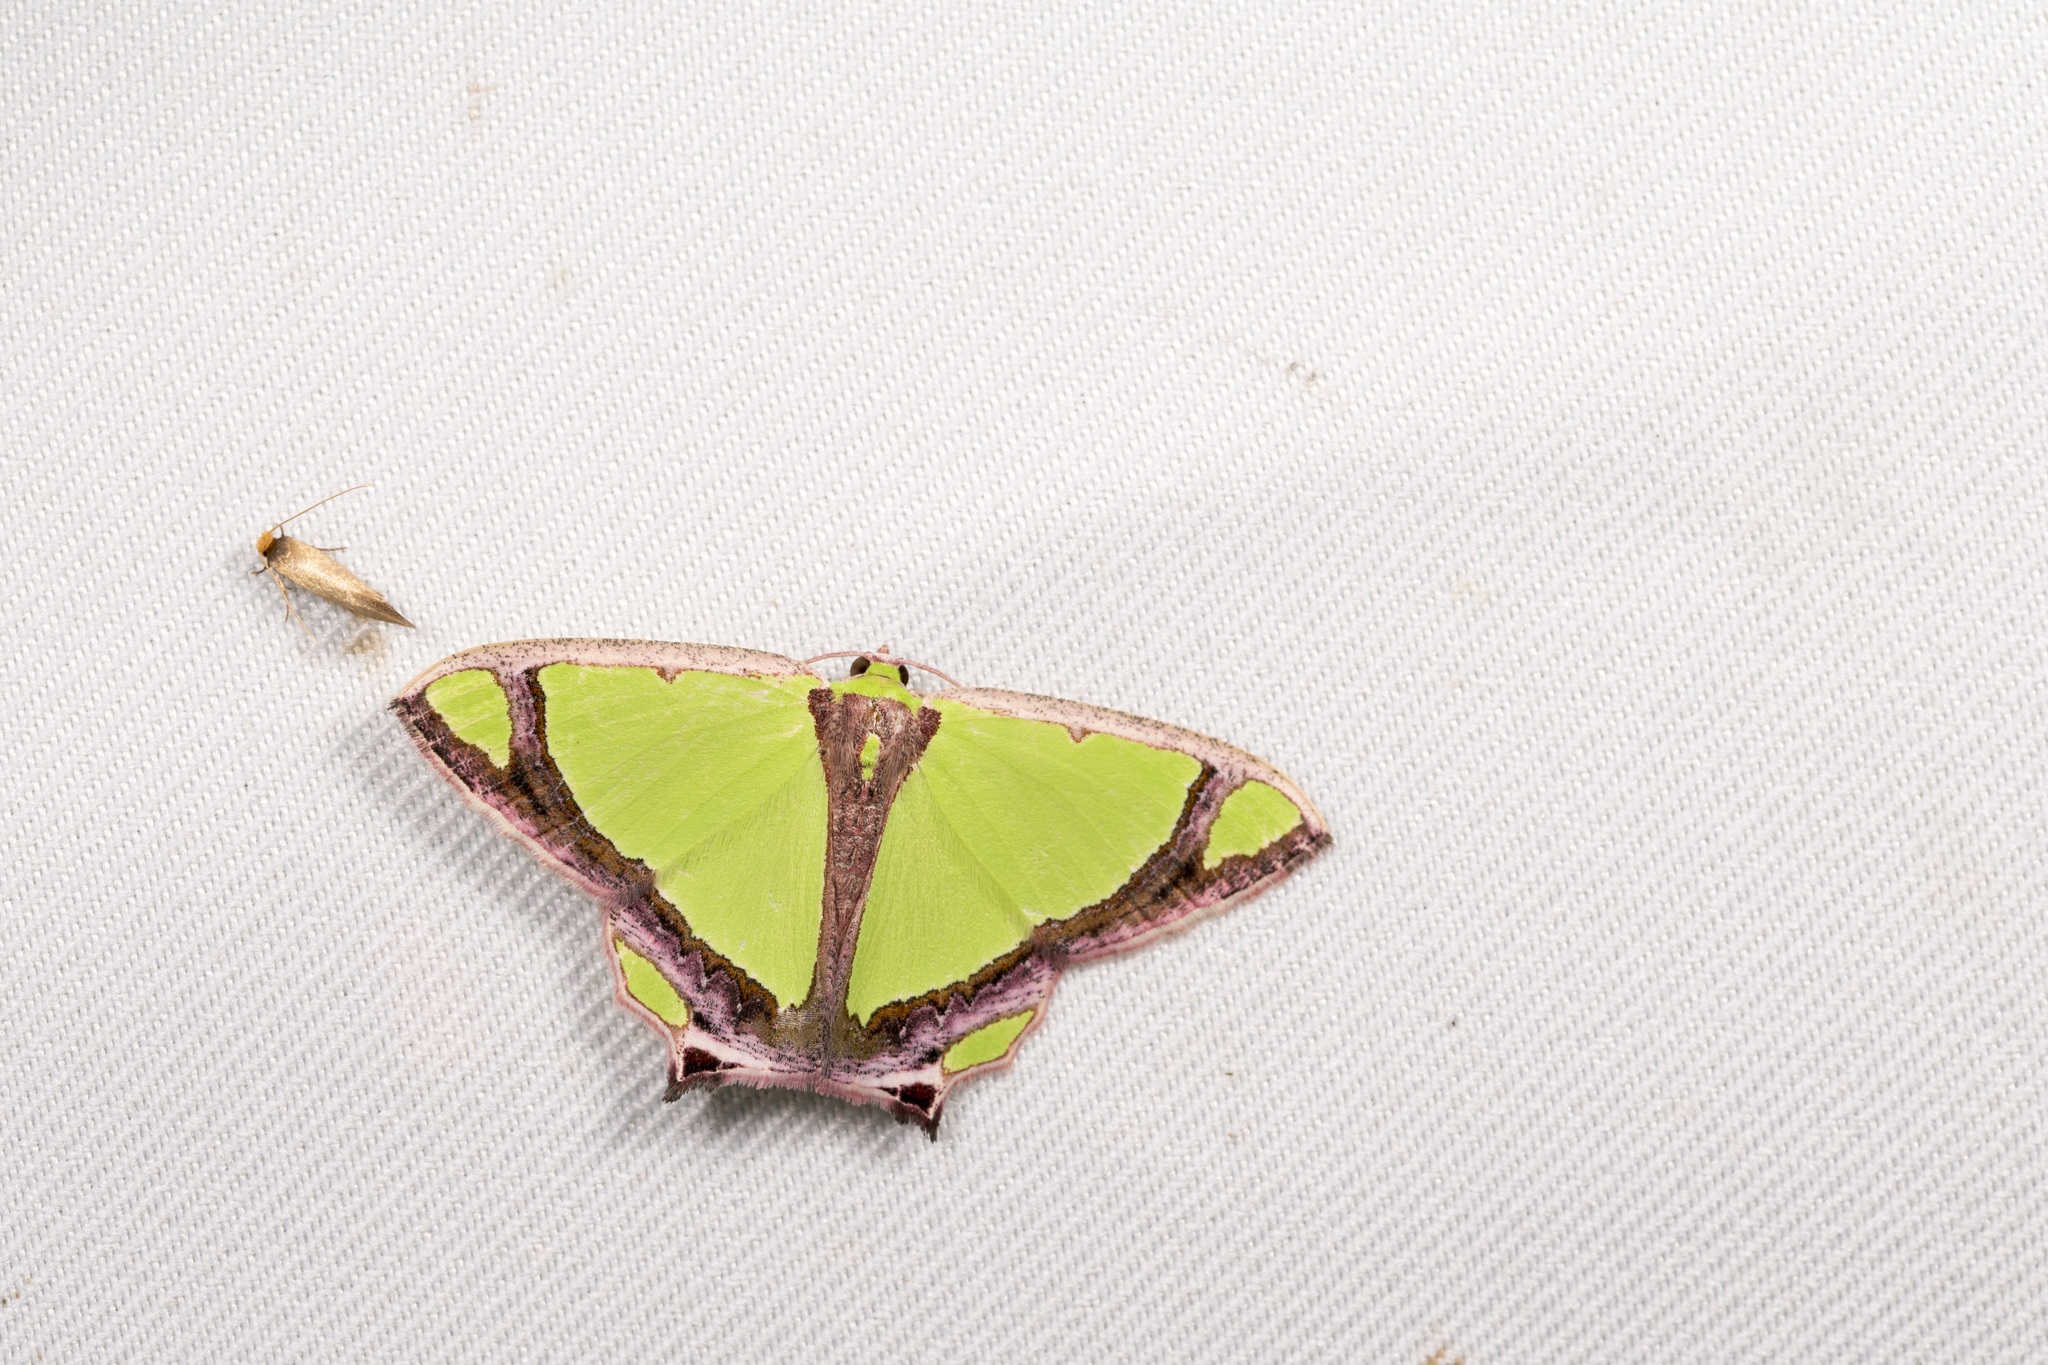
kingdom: Animalia
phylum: Arthropoda
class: Insecta
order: Lepidoptera
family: Geometridae
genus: Agathia
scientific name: Agathia laetata
